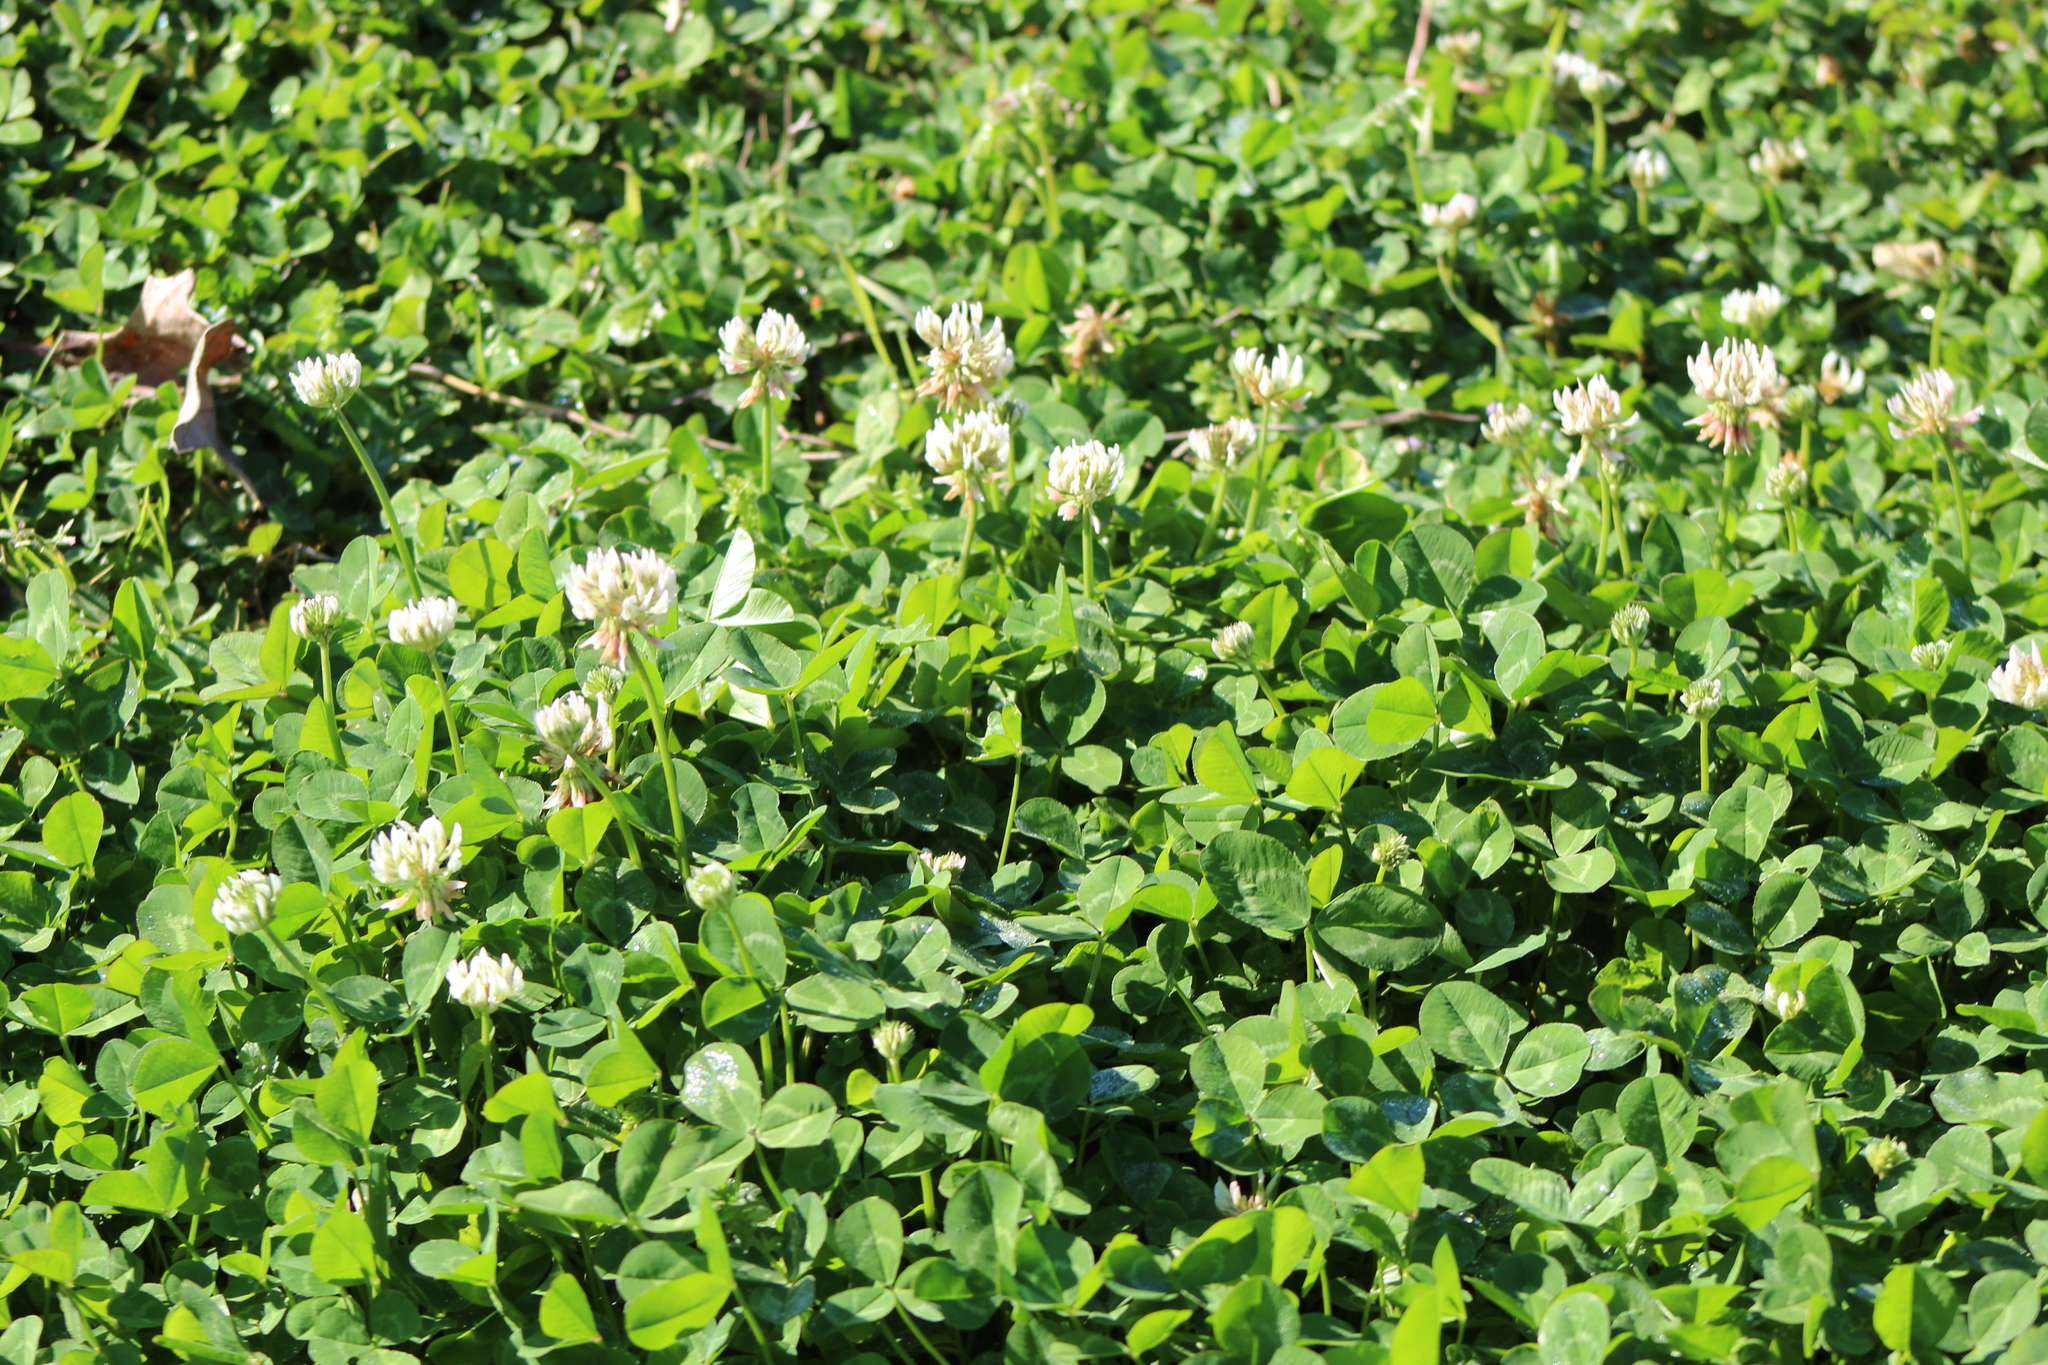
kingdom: Plantae
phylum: Tracheophyta
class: Magnoliopsida
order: Fabales
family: Fabaceae
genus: Trifolium
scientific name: Trifolium repens
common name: White clover
